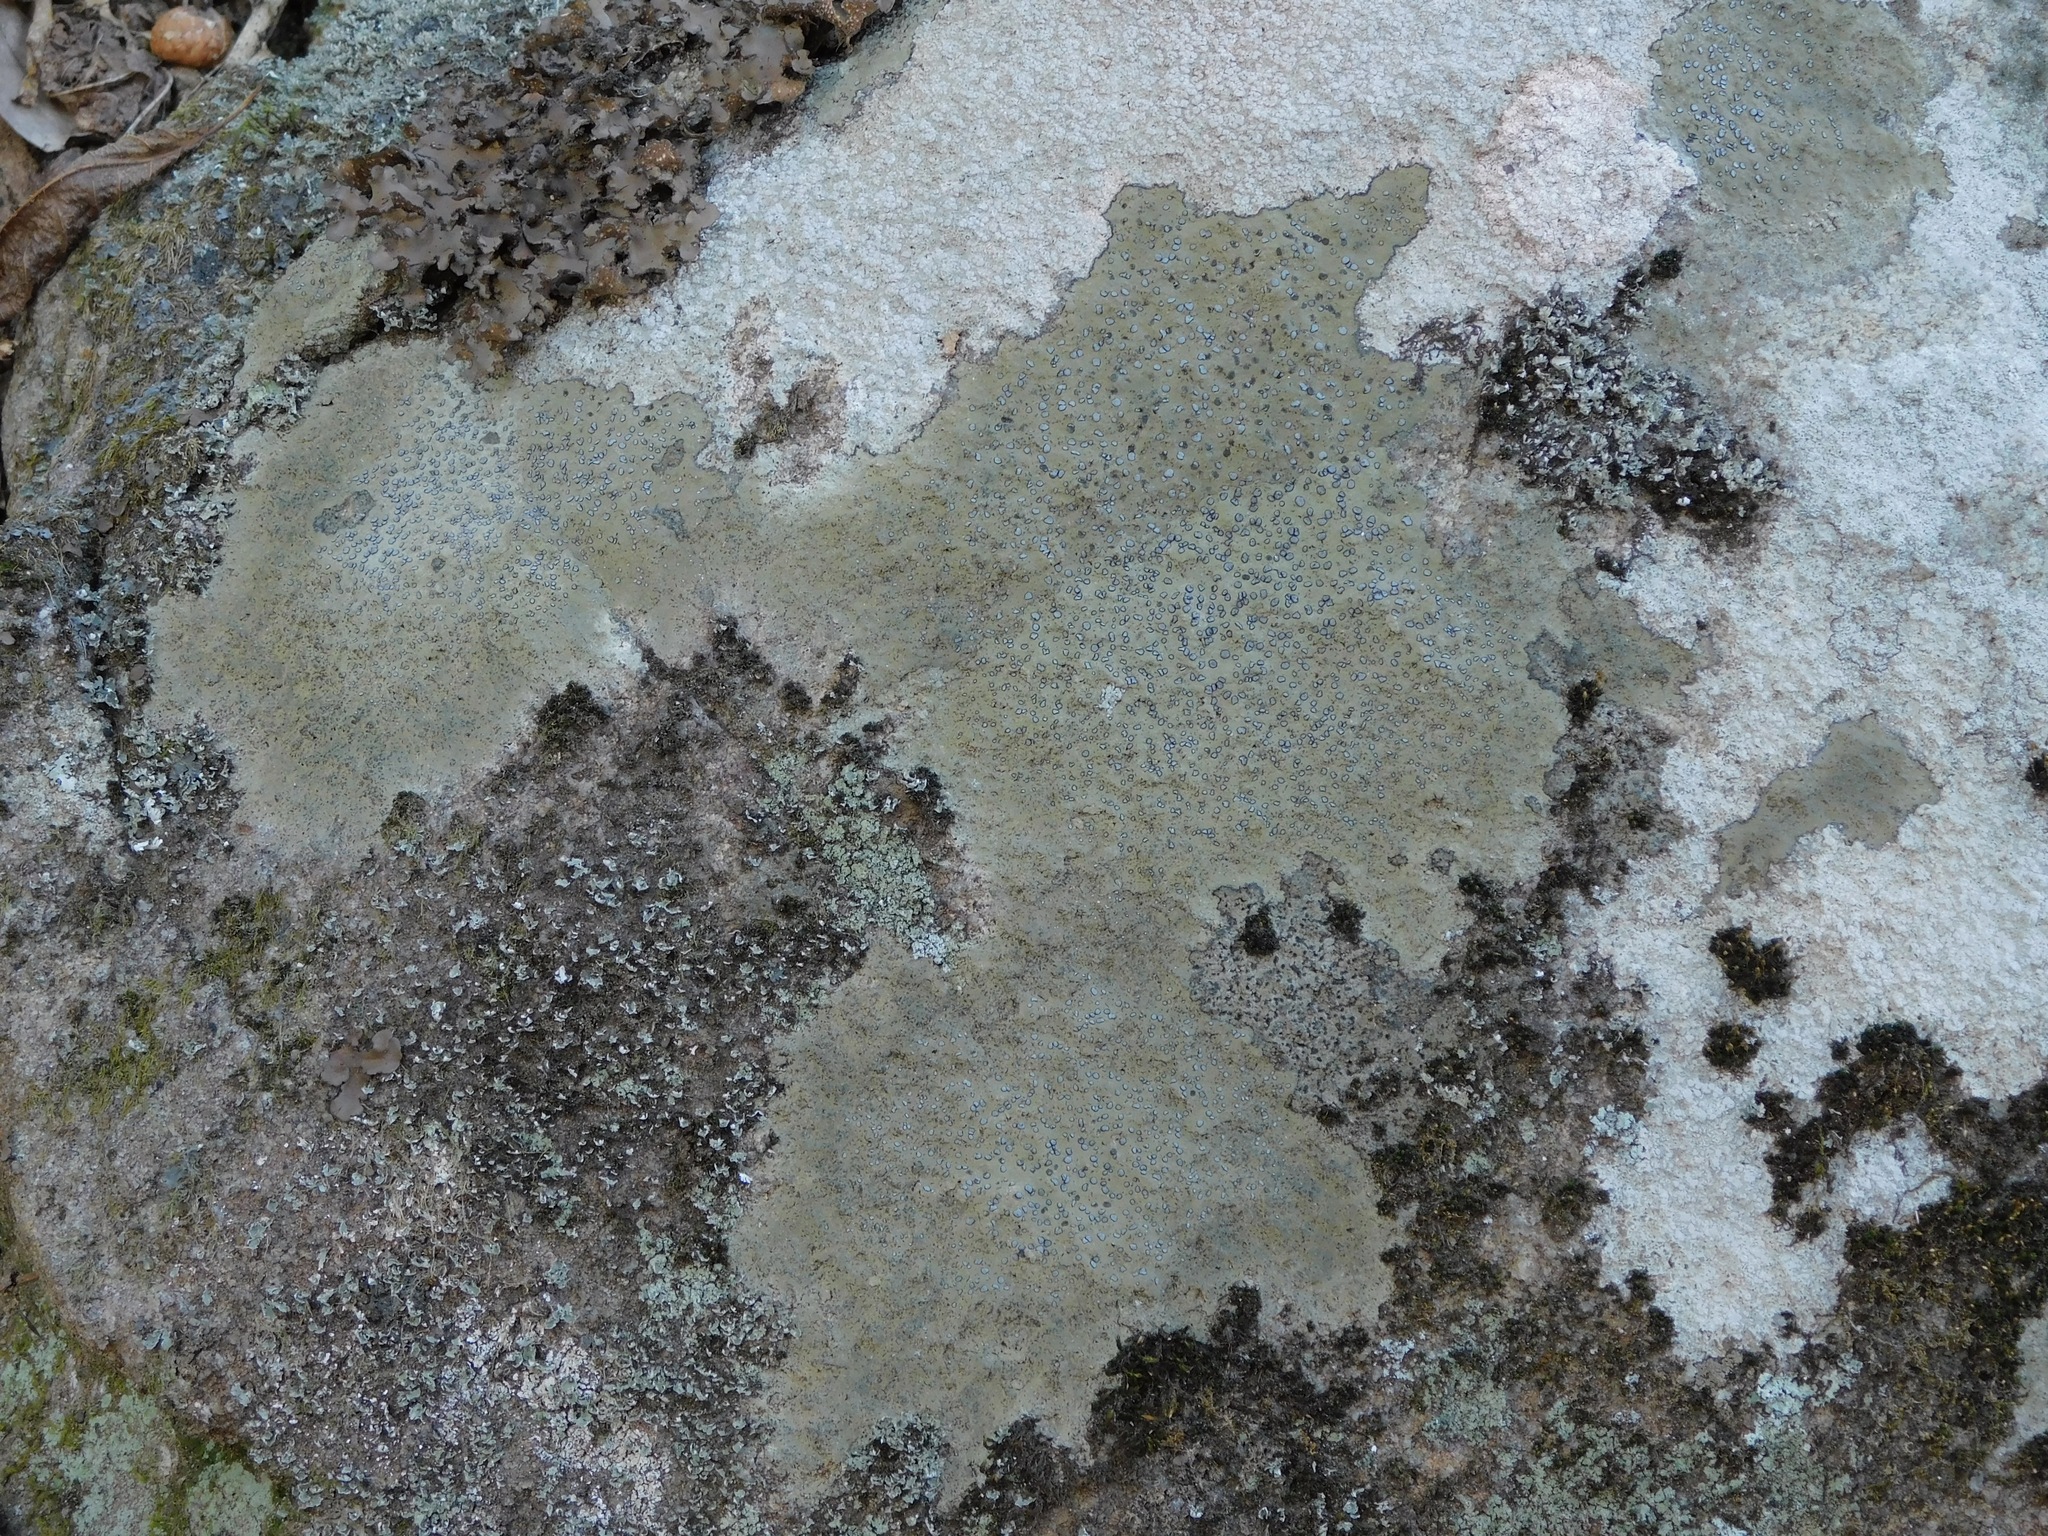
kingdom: Fungi
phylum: Ascomycota
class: Lecanoromycetes
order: Lecideales
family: Lecideaceae
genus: Porpidia
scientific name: Porpidia albocaerulescens
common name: Smokey-eyed boulder lichen
